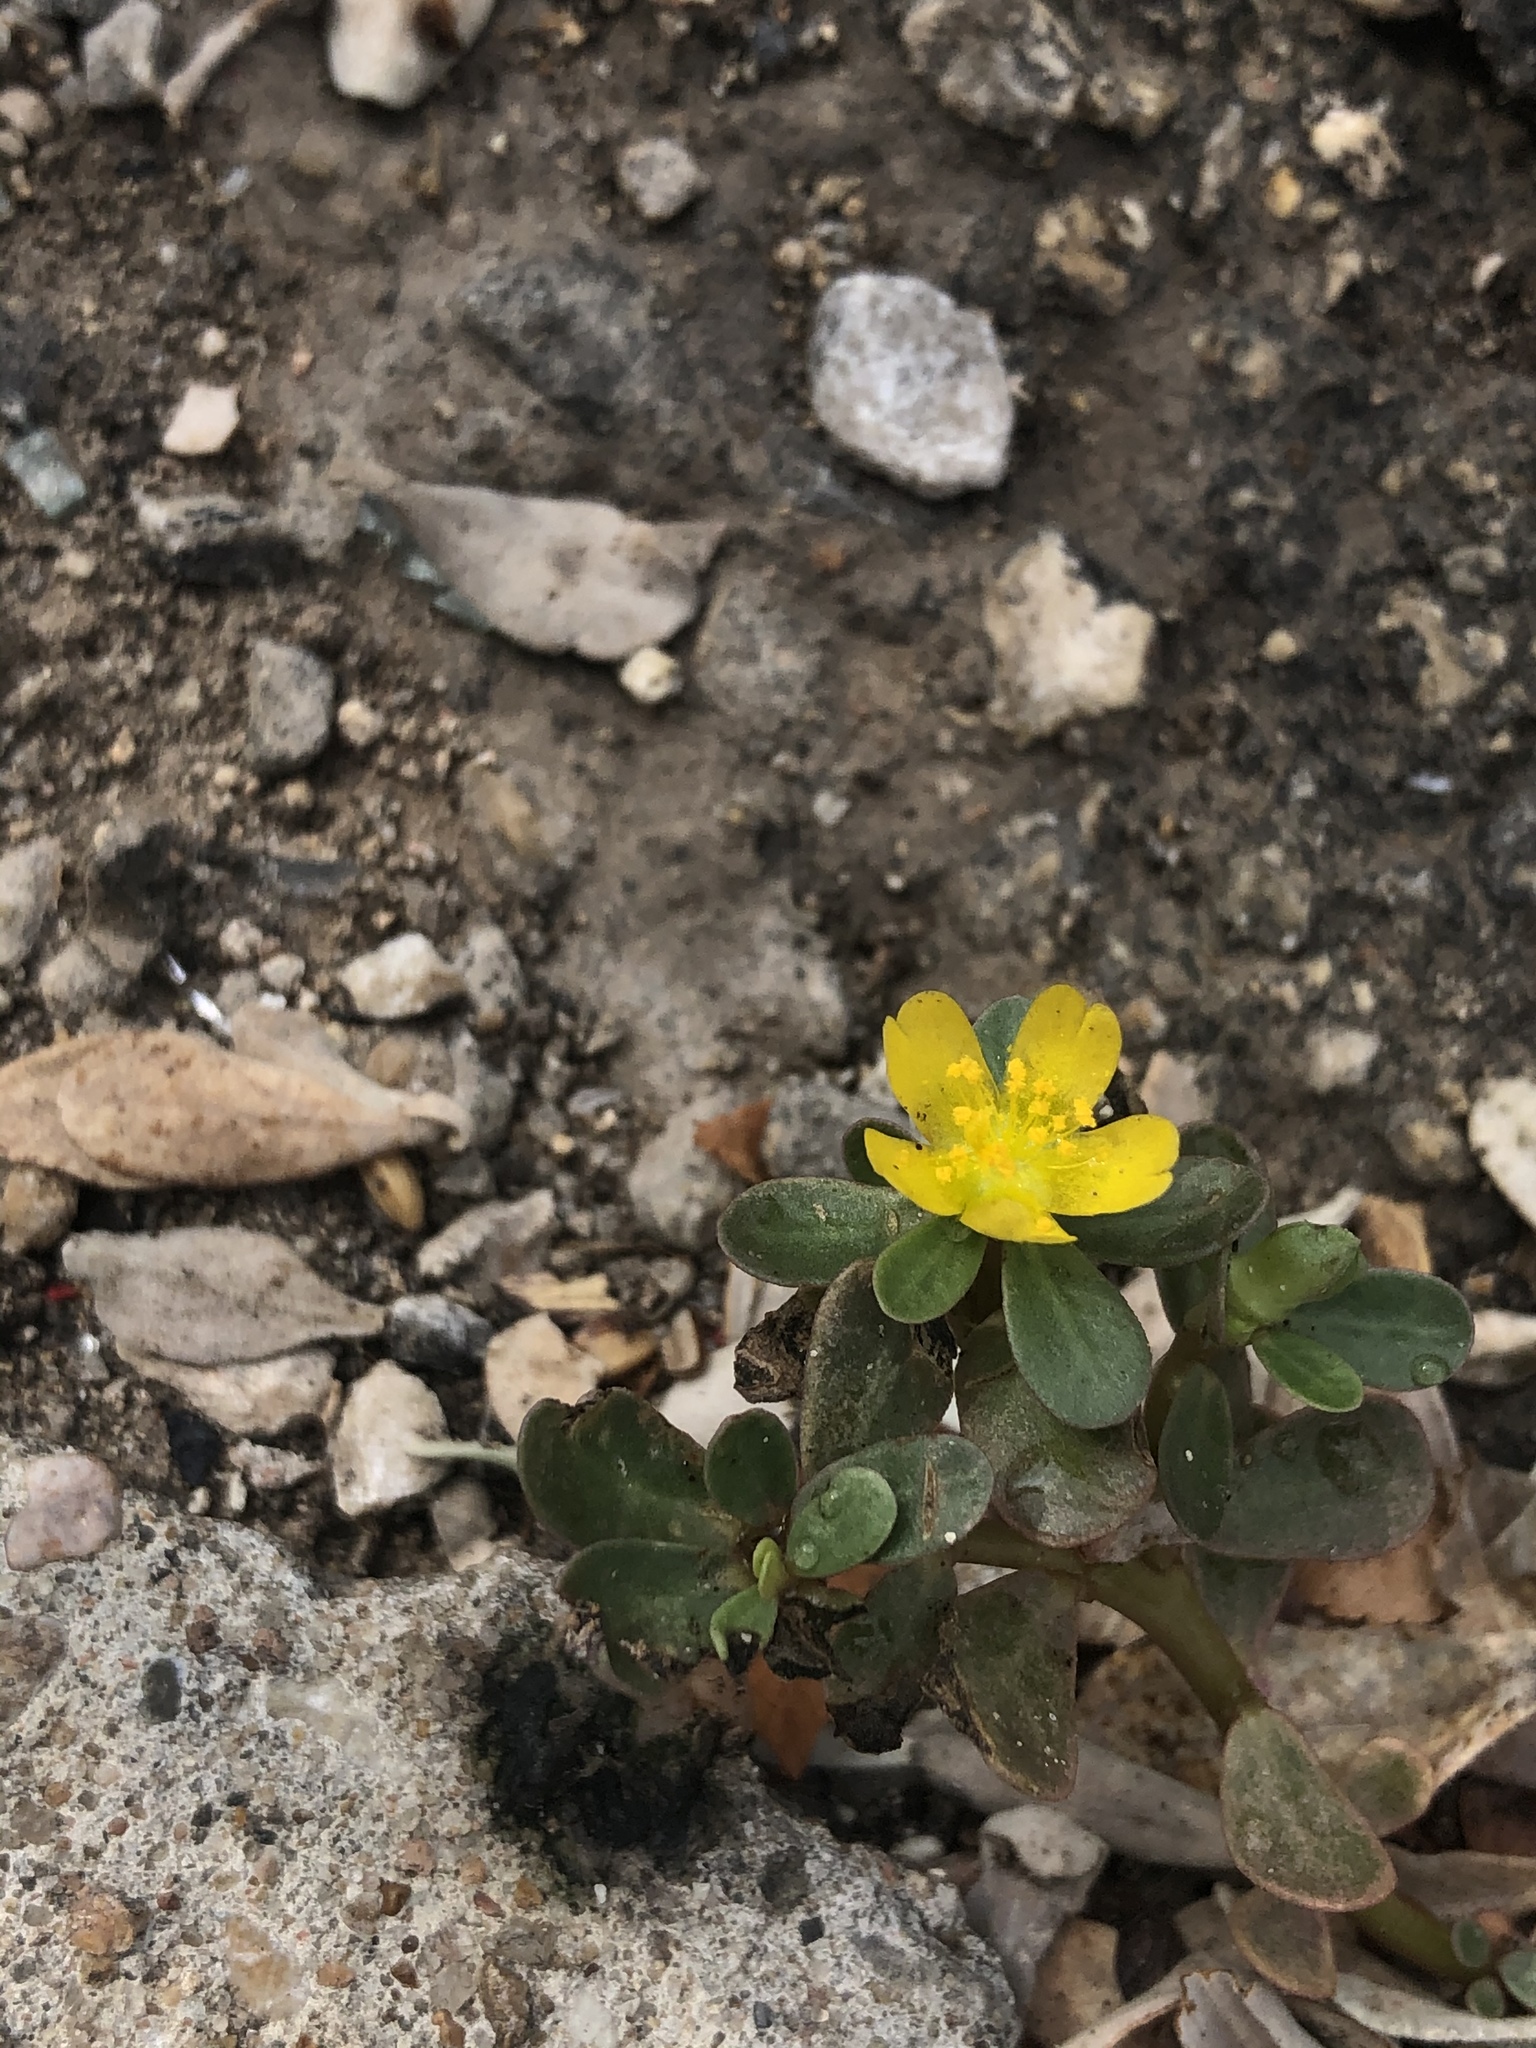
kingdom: Plantae
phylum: Tracheophyta
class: Magnoliopsida
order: Caryophyllales
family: Portulacaceae
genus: Portulaca
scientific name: Portulaca oleracea
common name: Common purslane
